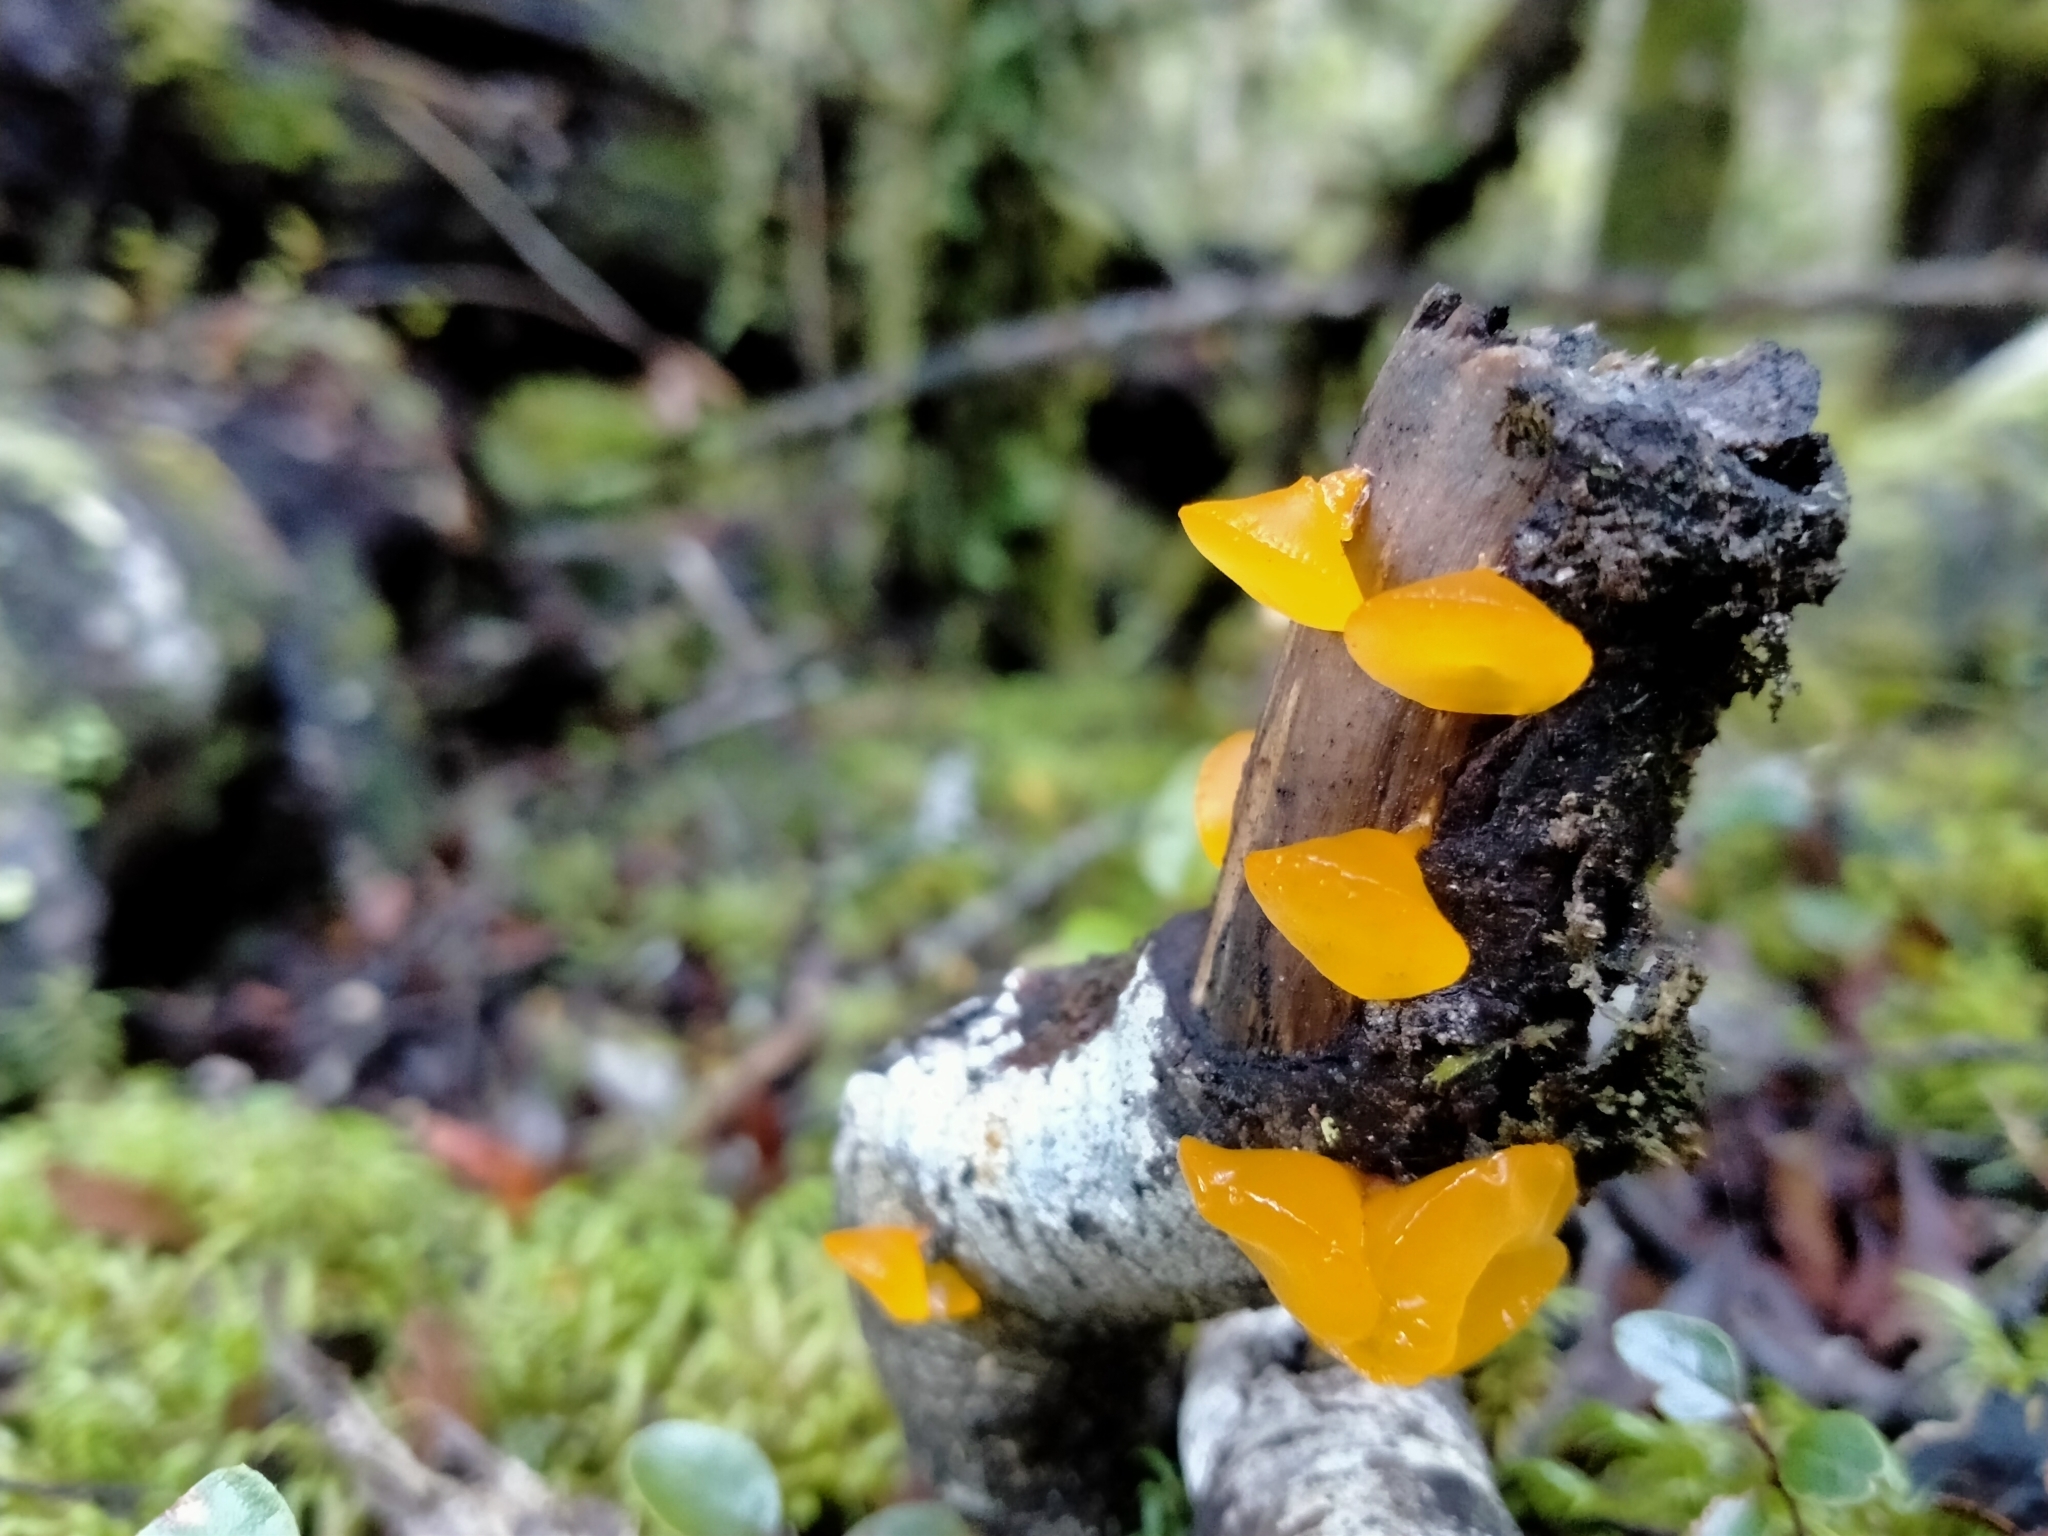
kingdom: Fungi
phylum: Basidiomycota
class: Dacrymycetes
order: Dacrymycetales
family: Dacrymycetaceae
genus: Heterotextus
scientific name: Heterotextus miltinus
